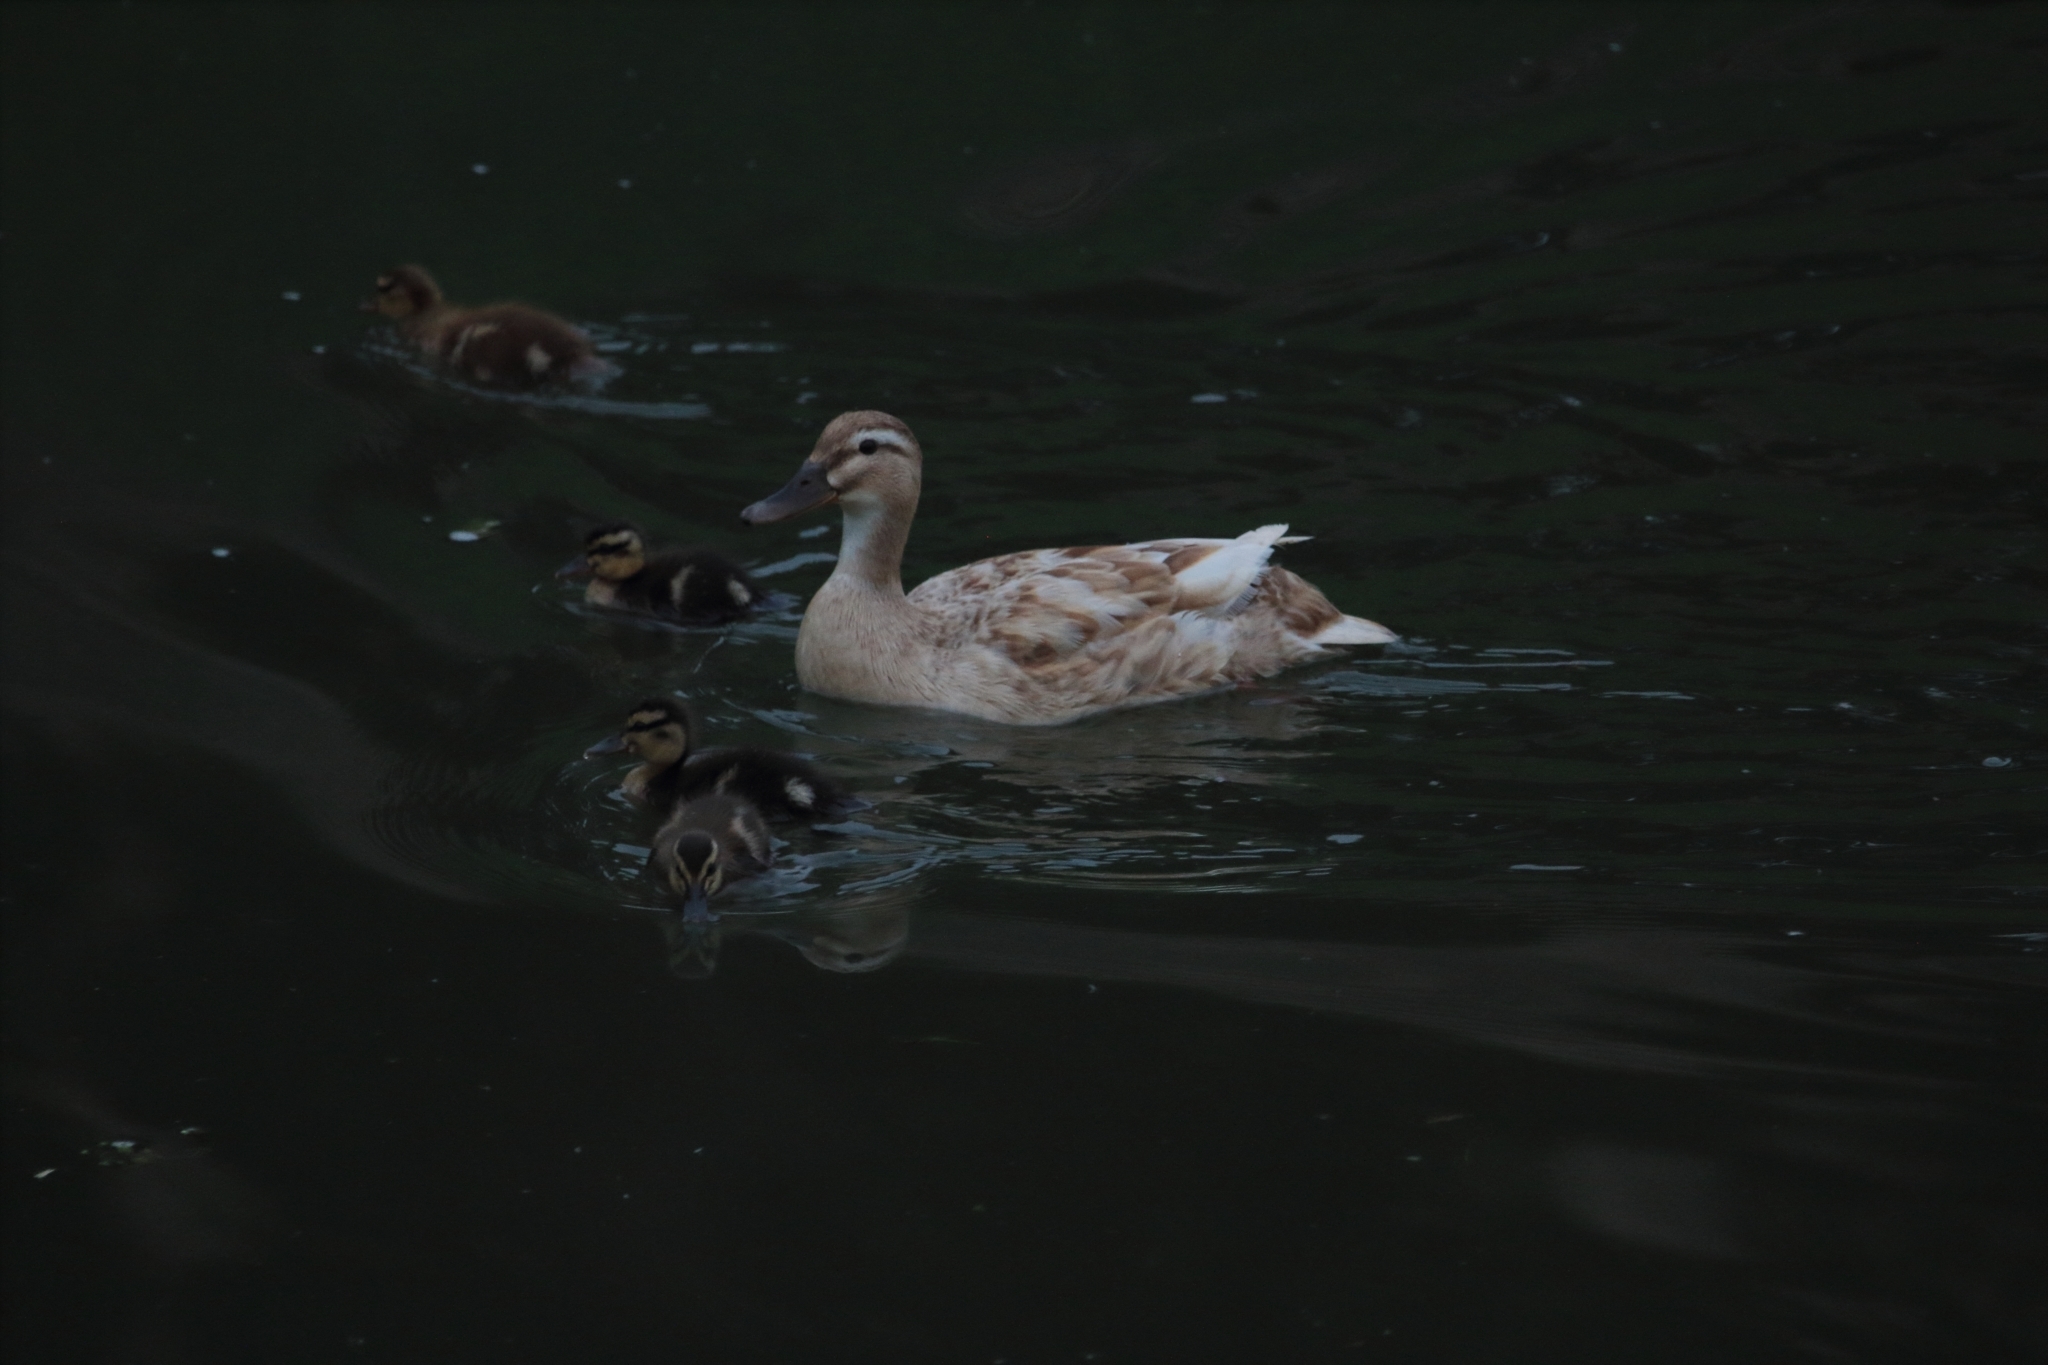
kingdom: Animalia
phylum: Chordata
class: Aves
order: Anseriformes
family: Anatidae
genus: Anas
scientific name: Anas platyrhynchos
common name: Mallard
